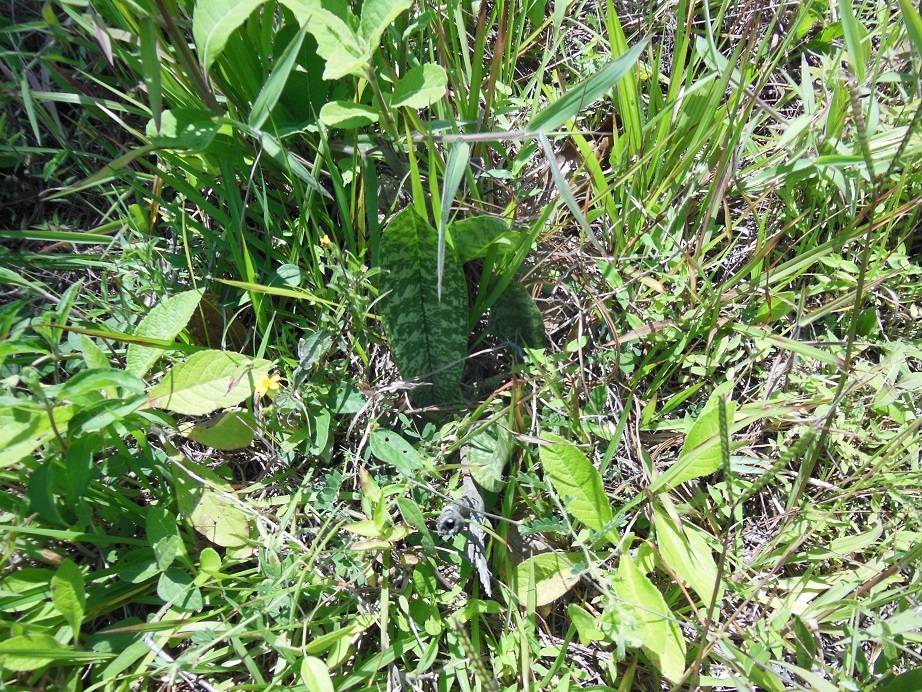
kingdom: Plantae
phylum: Tracheophyta
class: Liliopsida
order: Asparagales
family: Orchidaceae
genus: Eulophia
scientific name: Eulophia maculata
